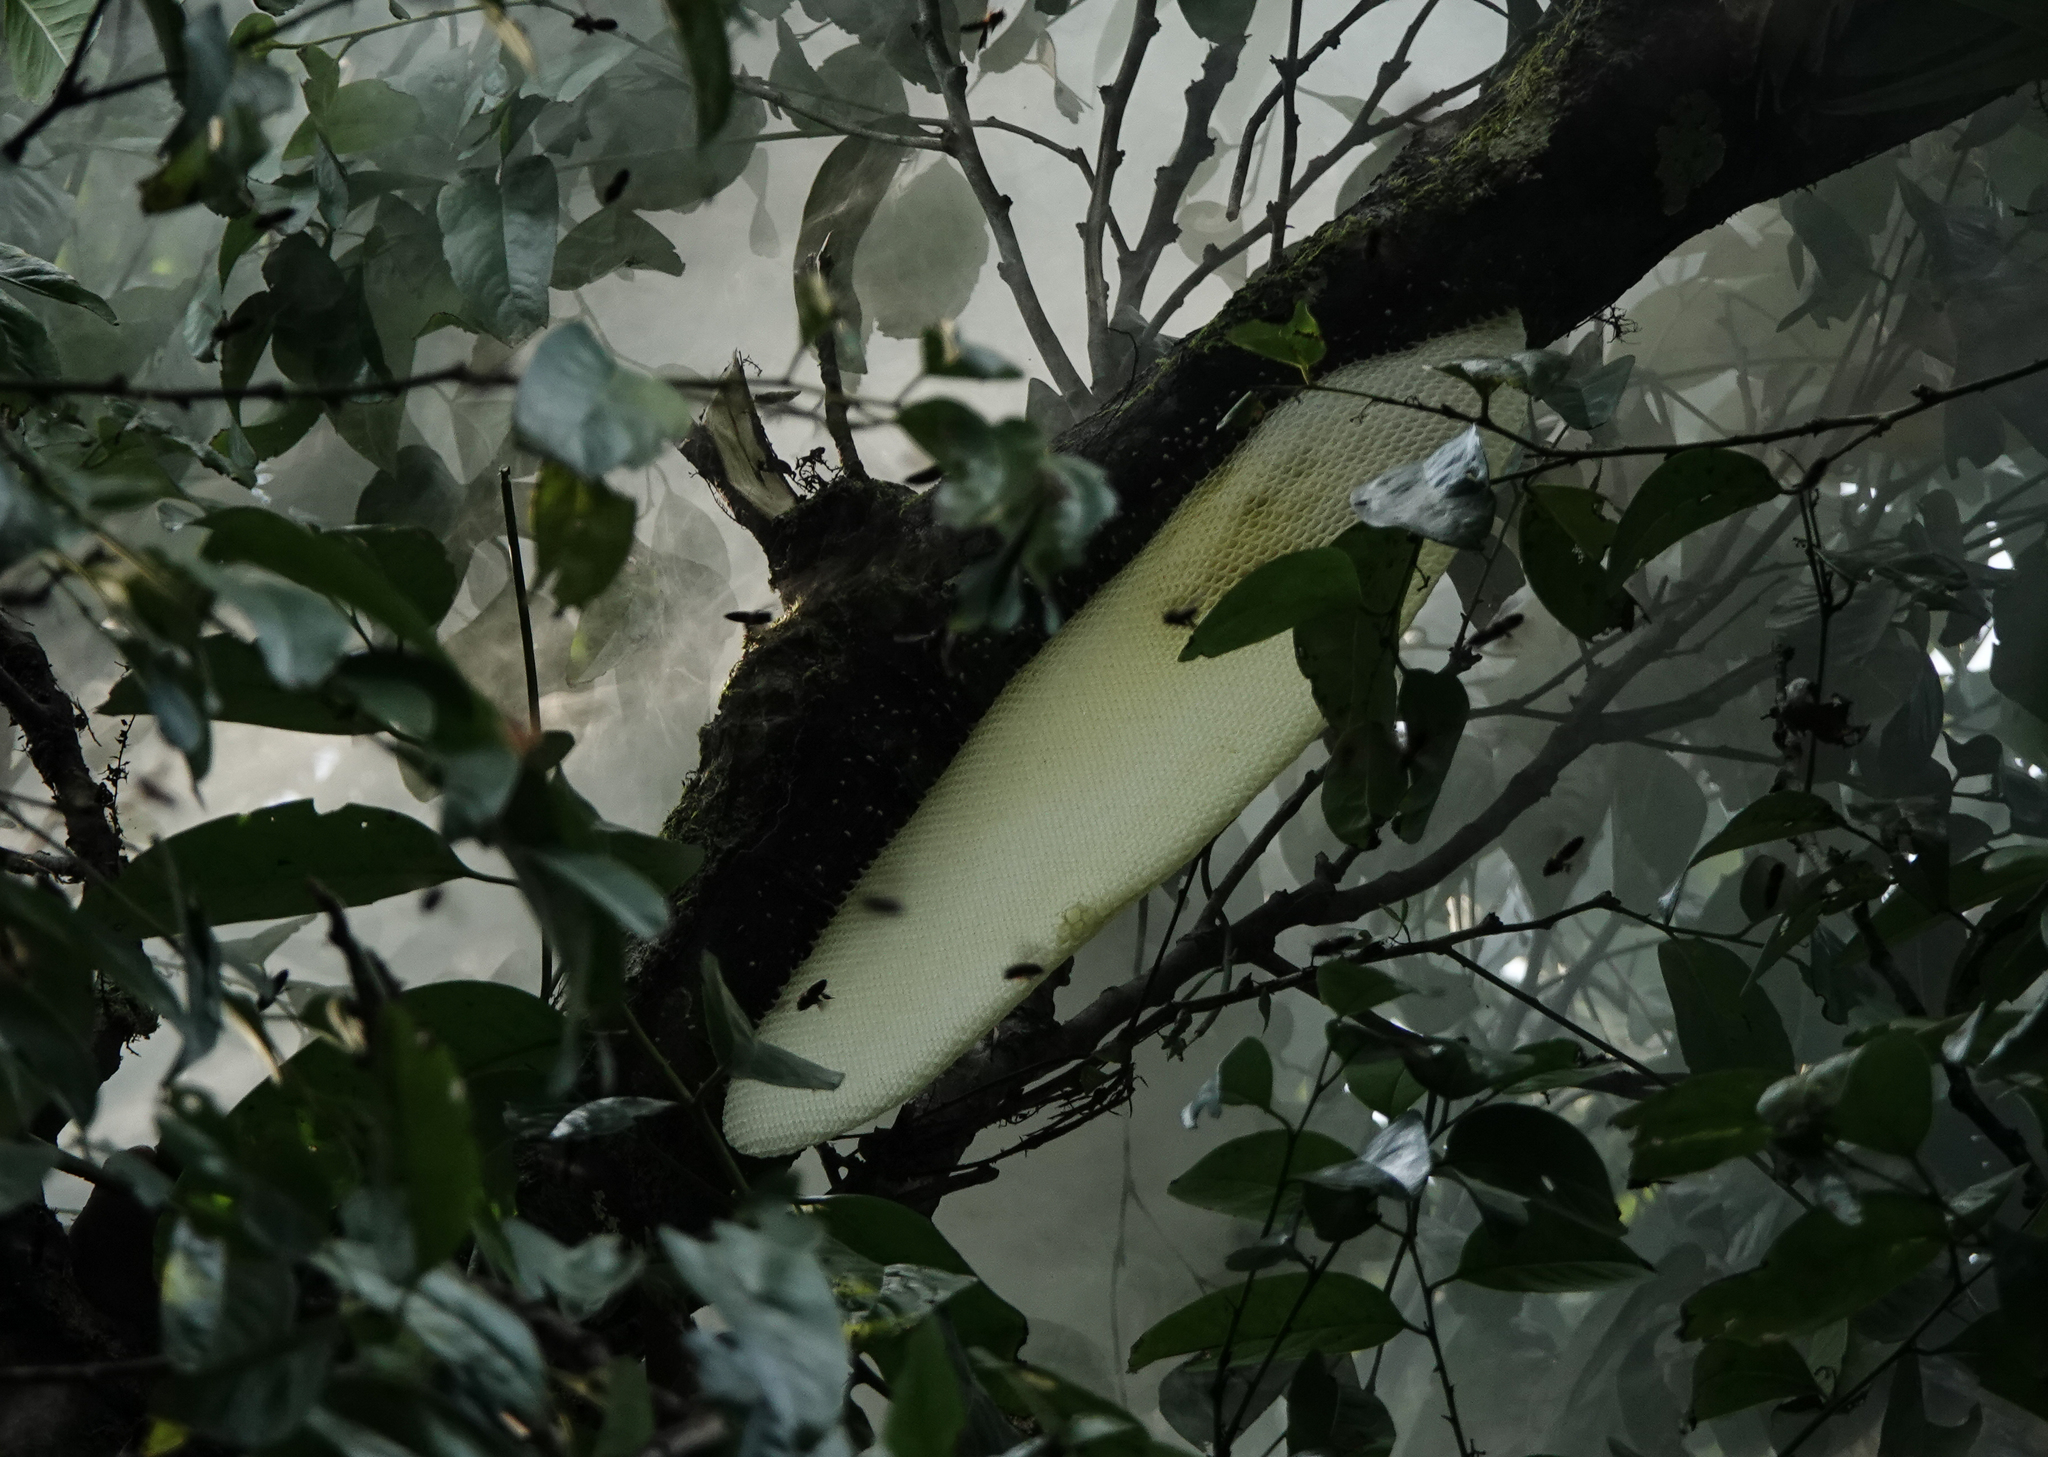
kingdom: Animalia
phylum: Arthropoda
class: Insecta
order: Hymenoptera
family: Apidae
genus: Apis
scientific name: Apis dorsata
